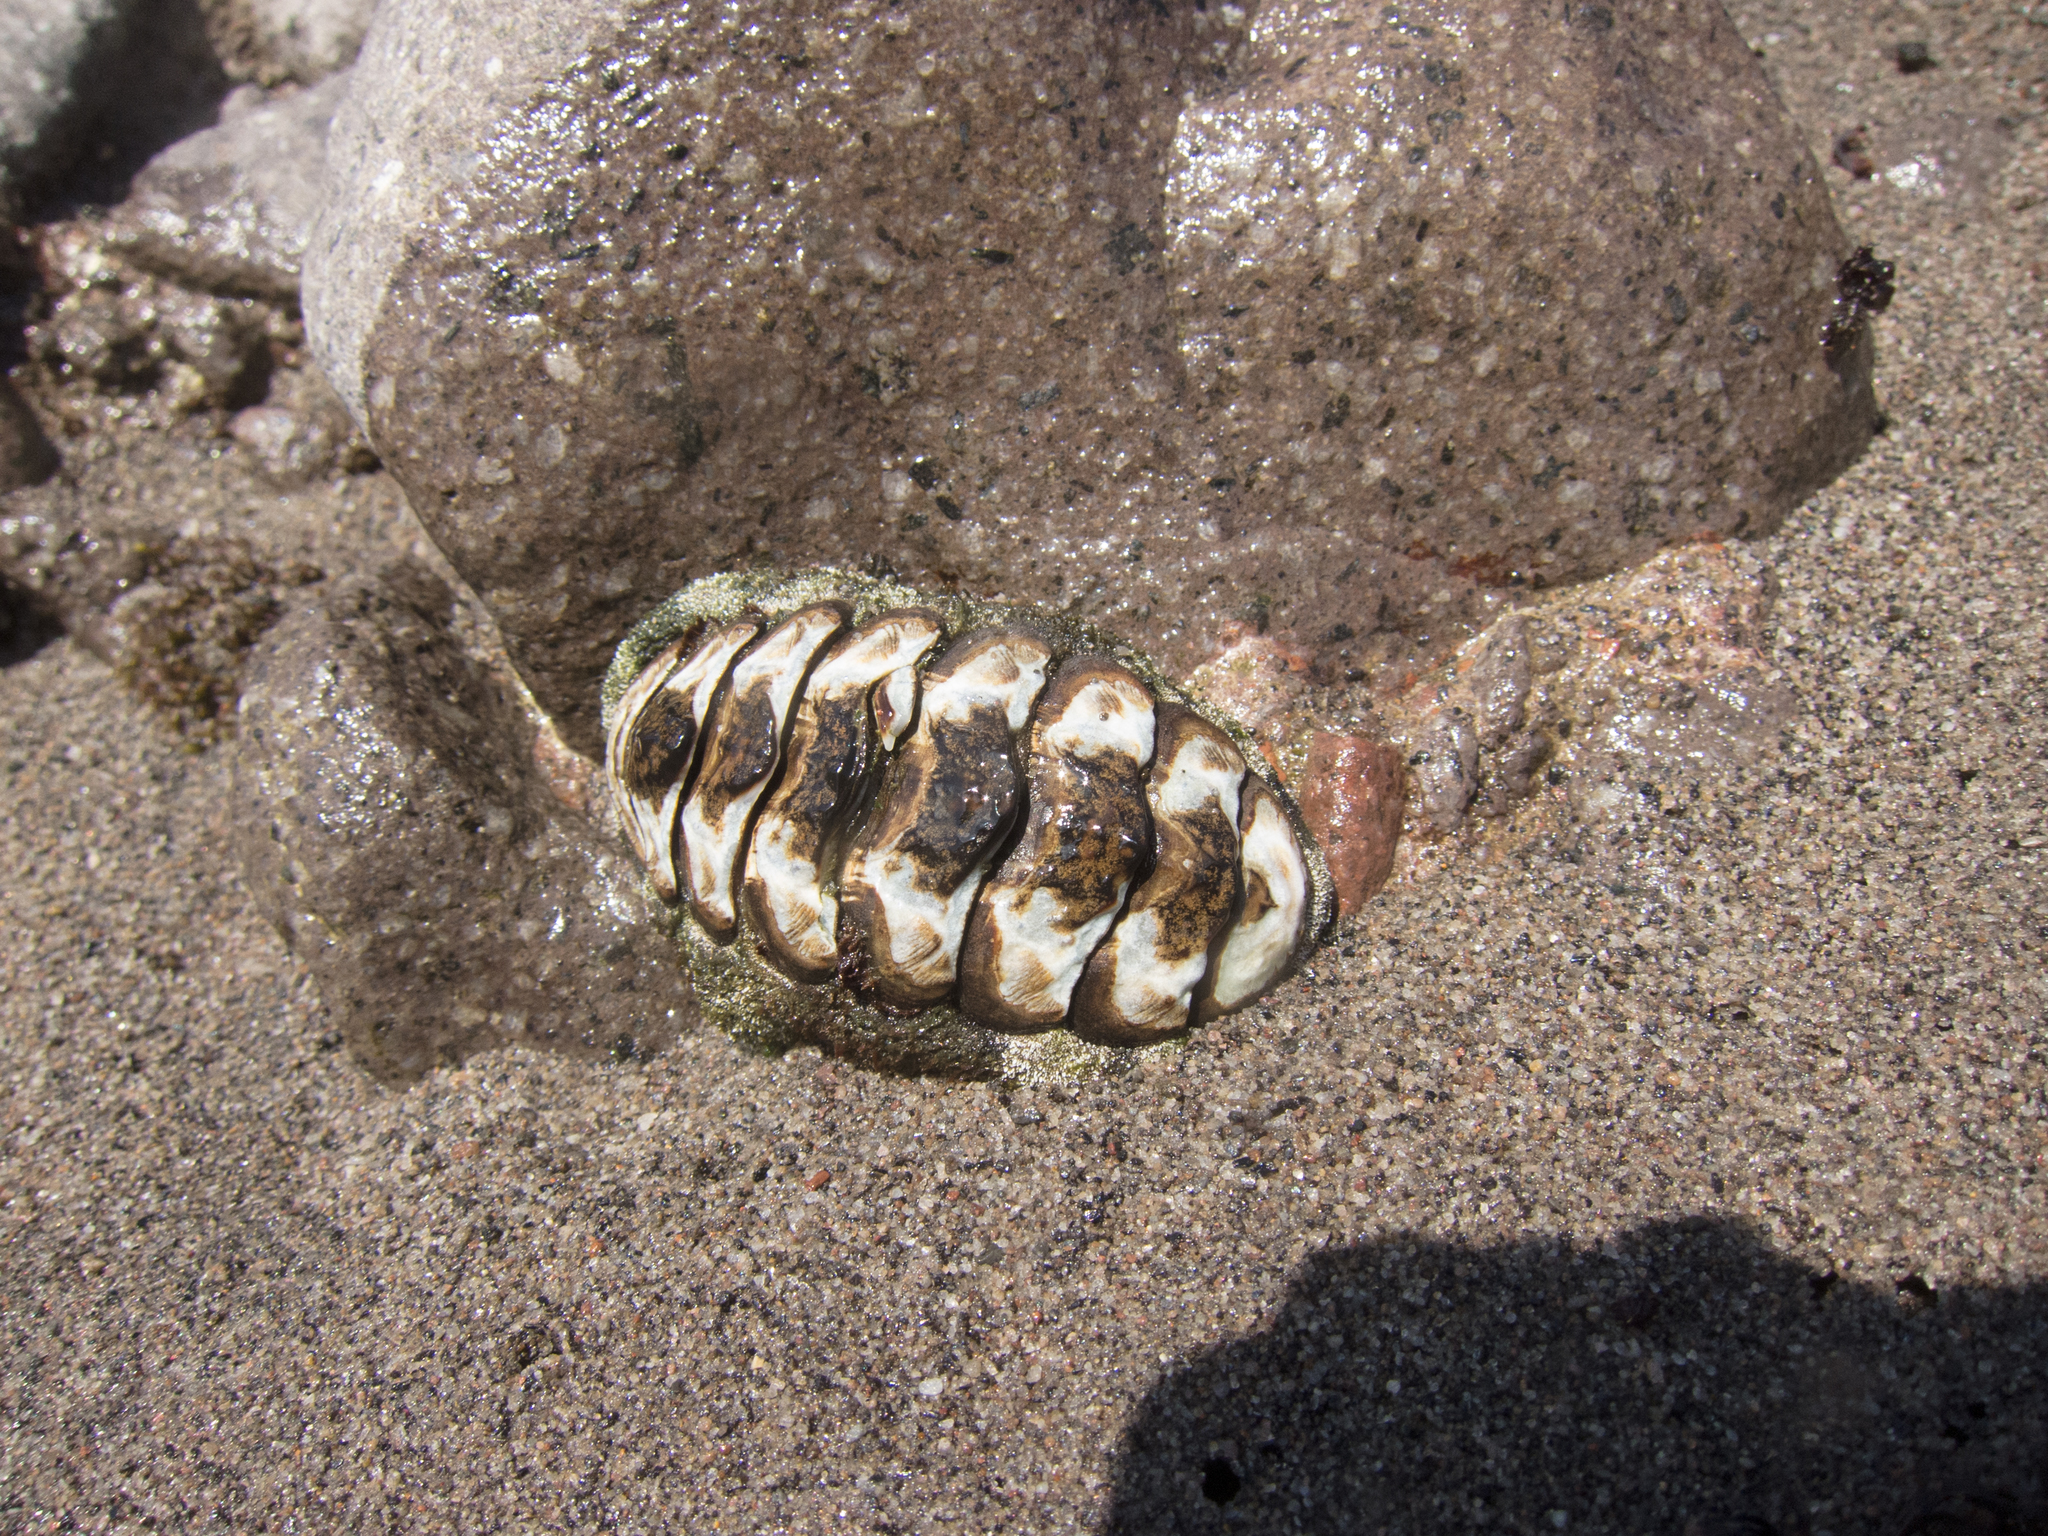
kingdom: Animalia
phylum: Mollusca
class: Polyplacophora
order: Chitonida
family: Chitonidae
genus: Acanthopleura
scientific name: Acanthopleura granulata
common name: West indian fuzzy chiton
